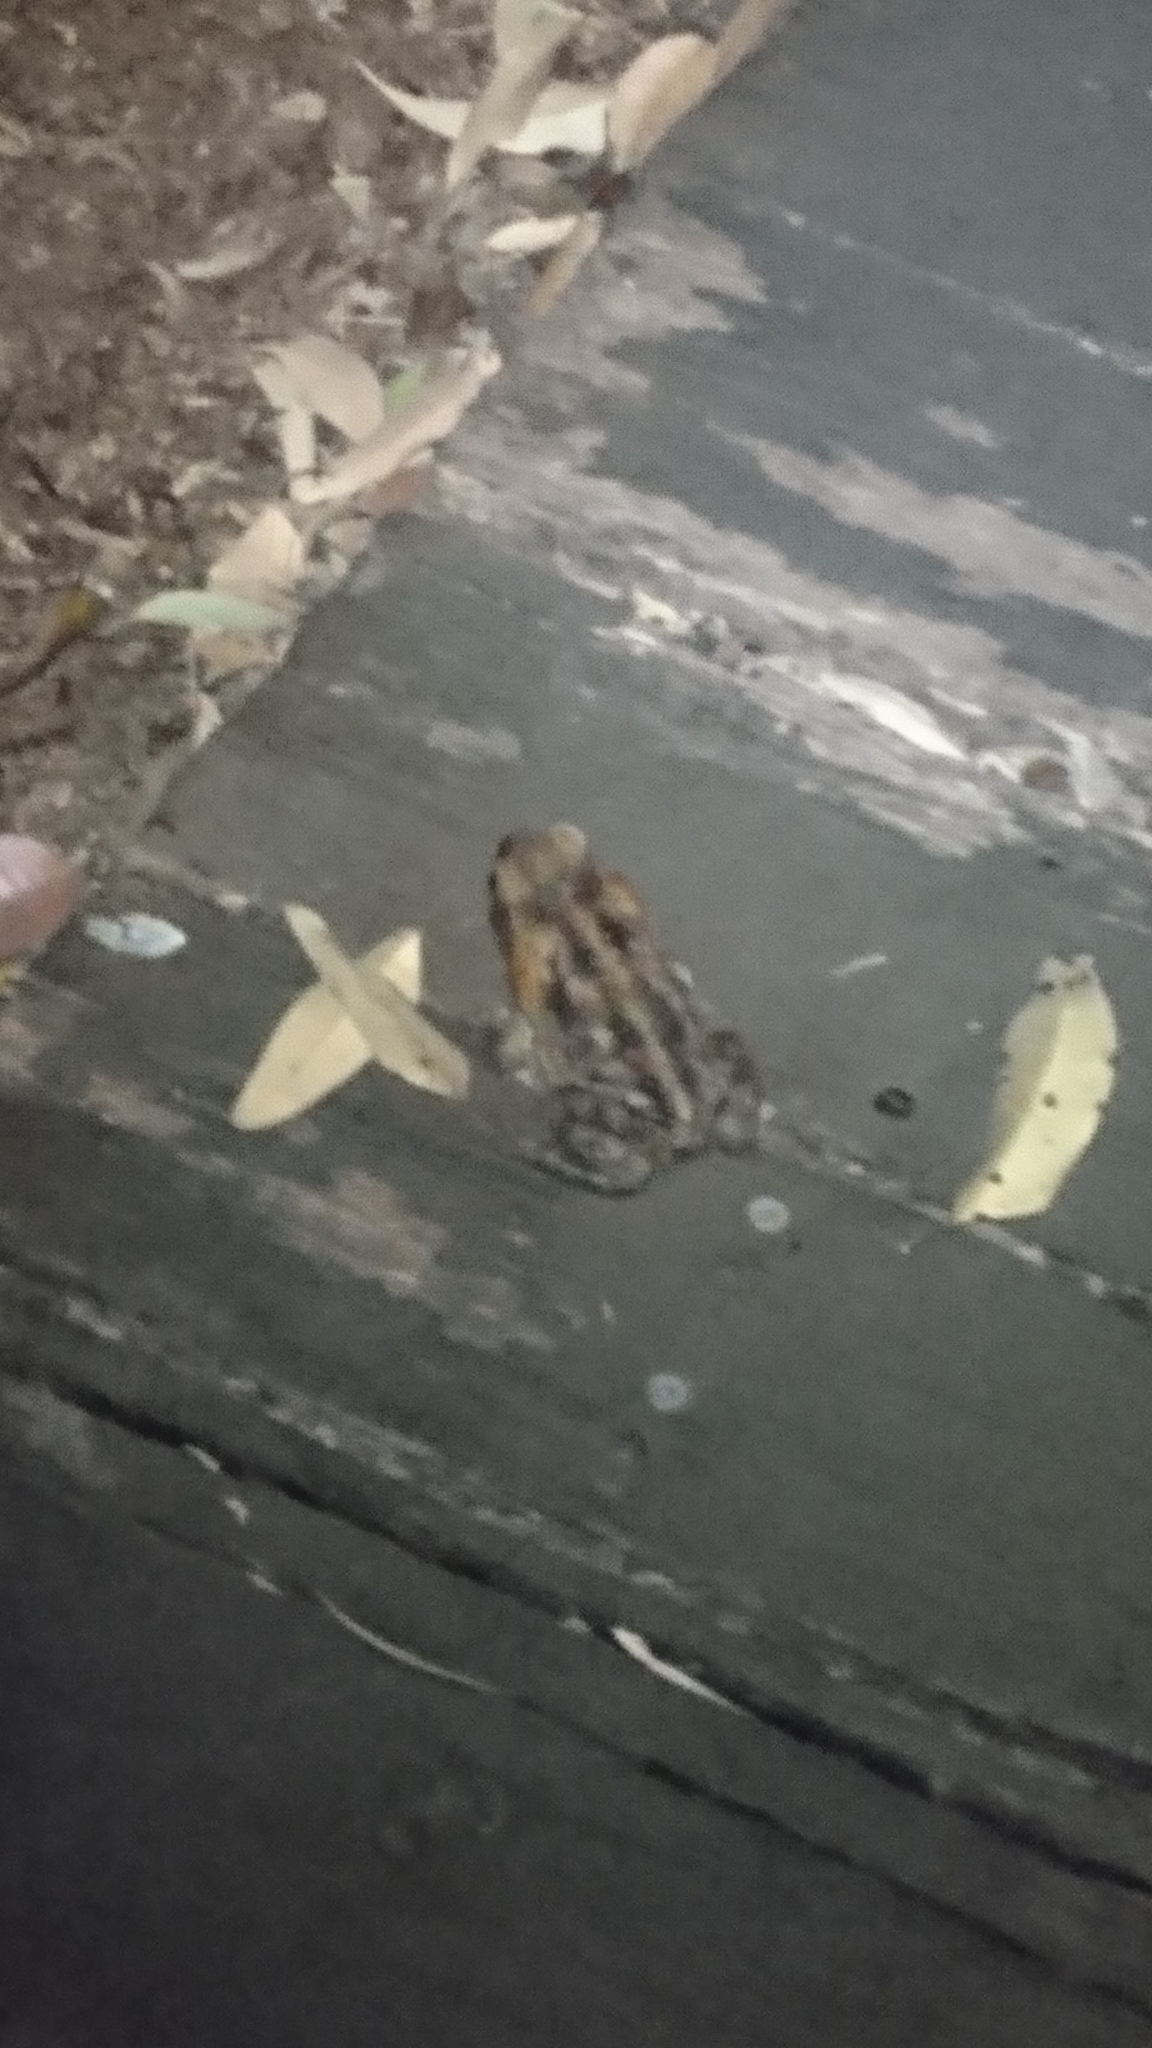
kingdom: Animalia
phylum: Chordata
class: Amphibia
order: Anura
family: Bufonidae
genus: Rhinella
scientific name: Rhinella marina
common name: Cane toad
